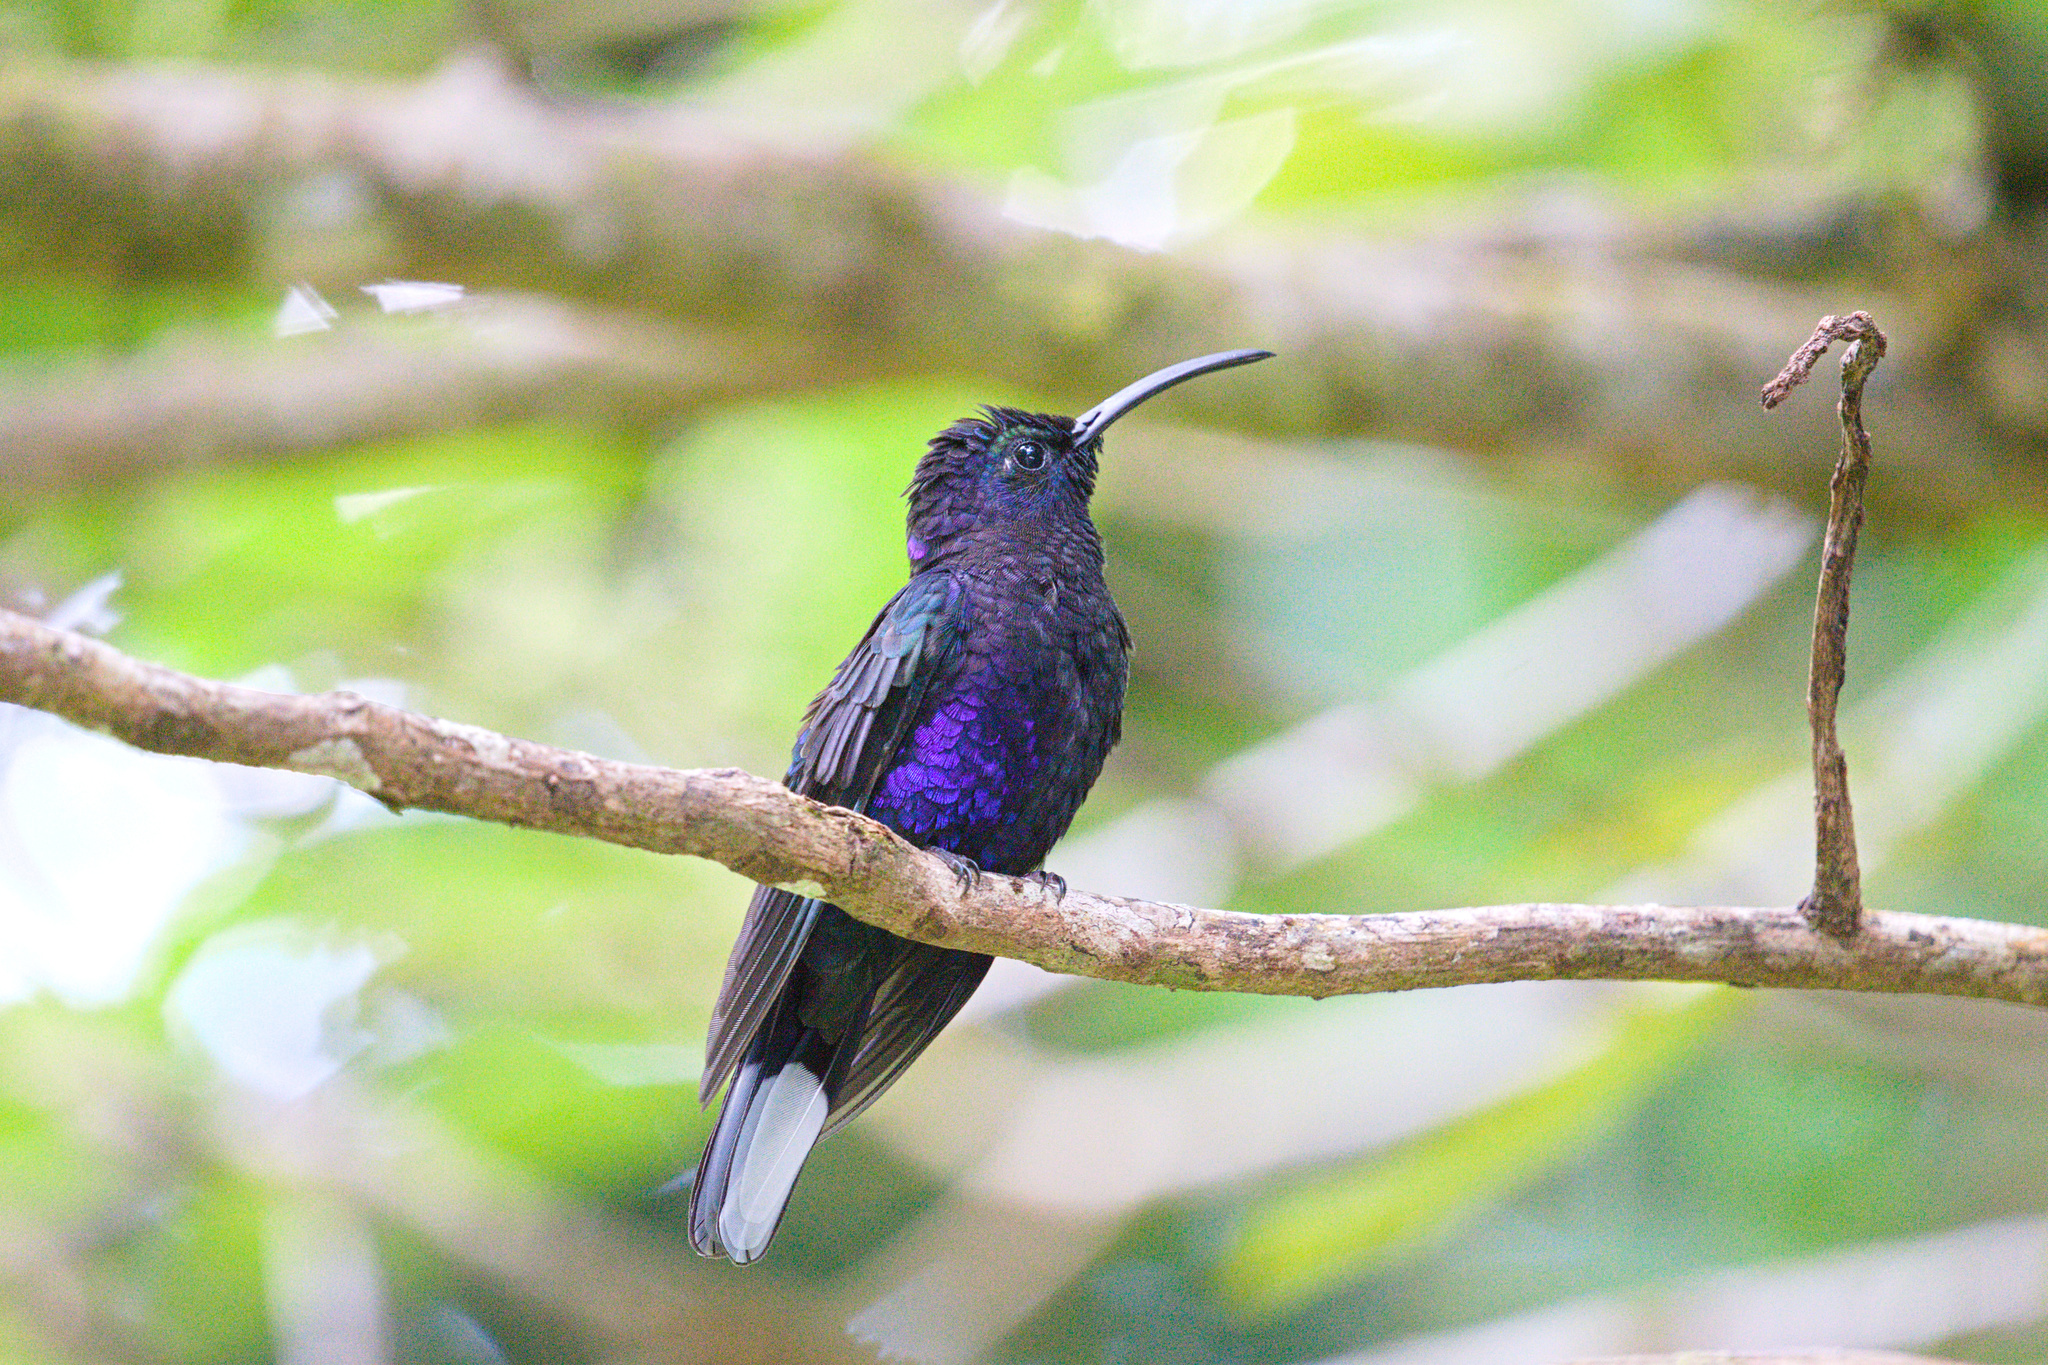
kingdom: Animalia
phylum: Chordata
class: Aves
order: Apodiformes
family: Trochilidae
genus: Campylopterus
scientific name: Campylopterus hemileucurus
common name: Violet sabrewing
